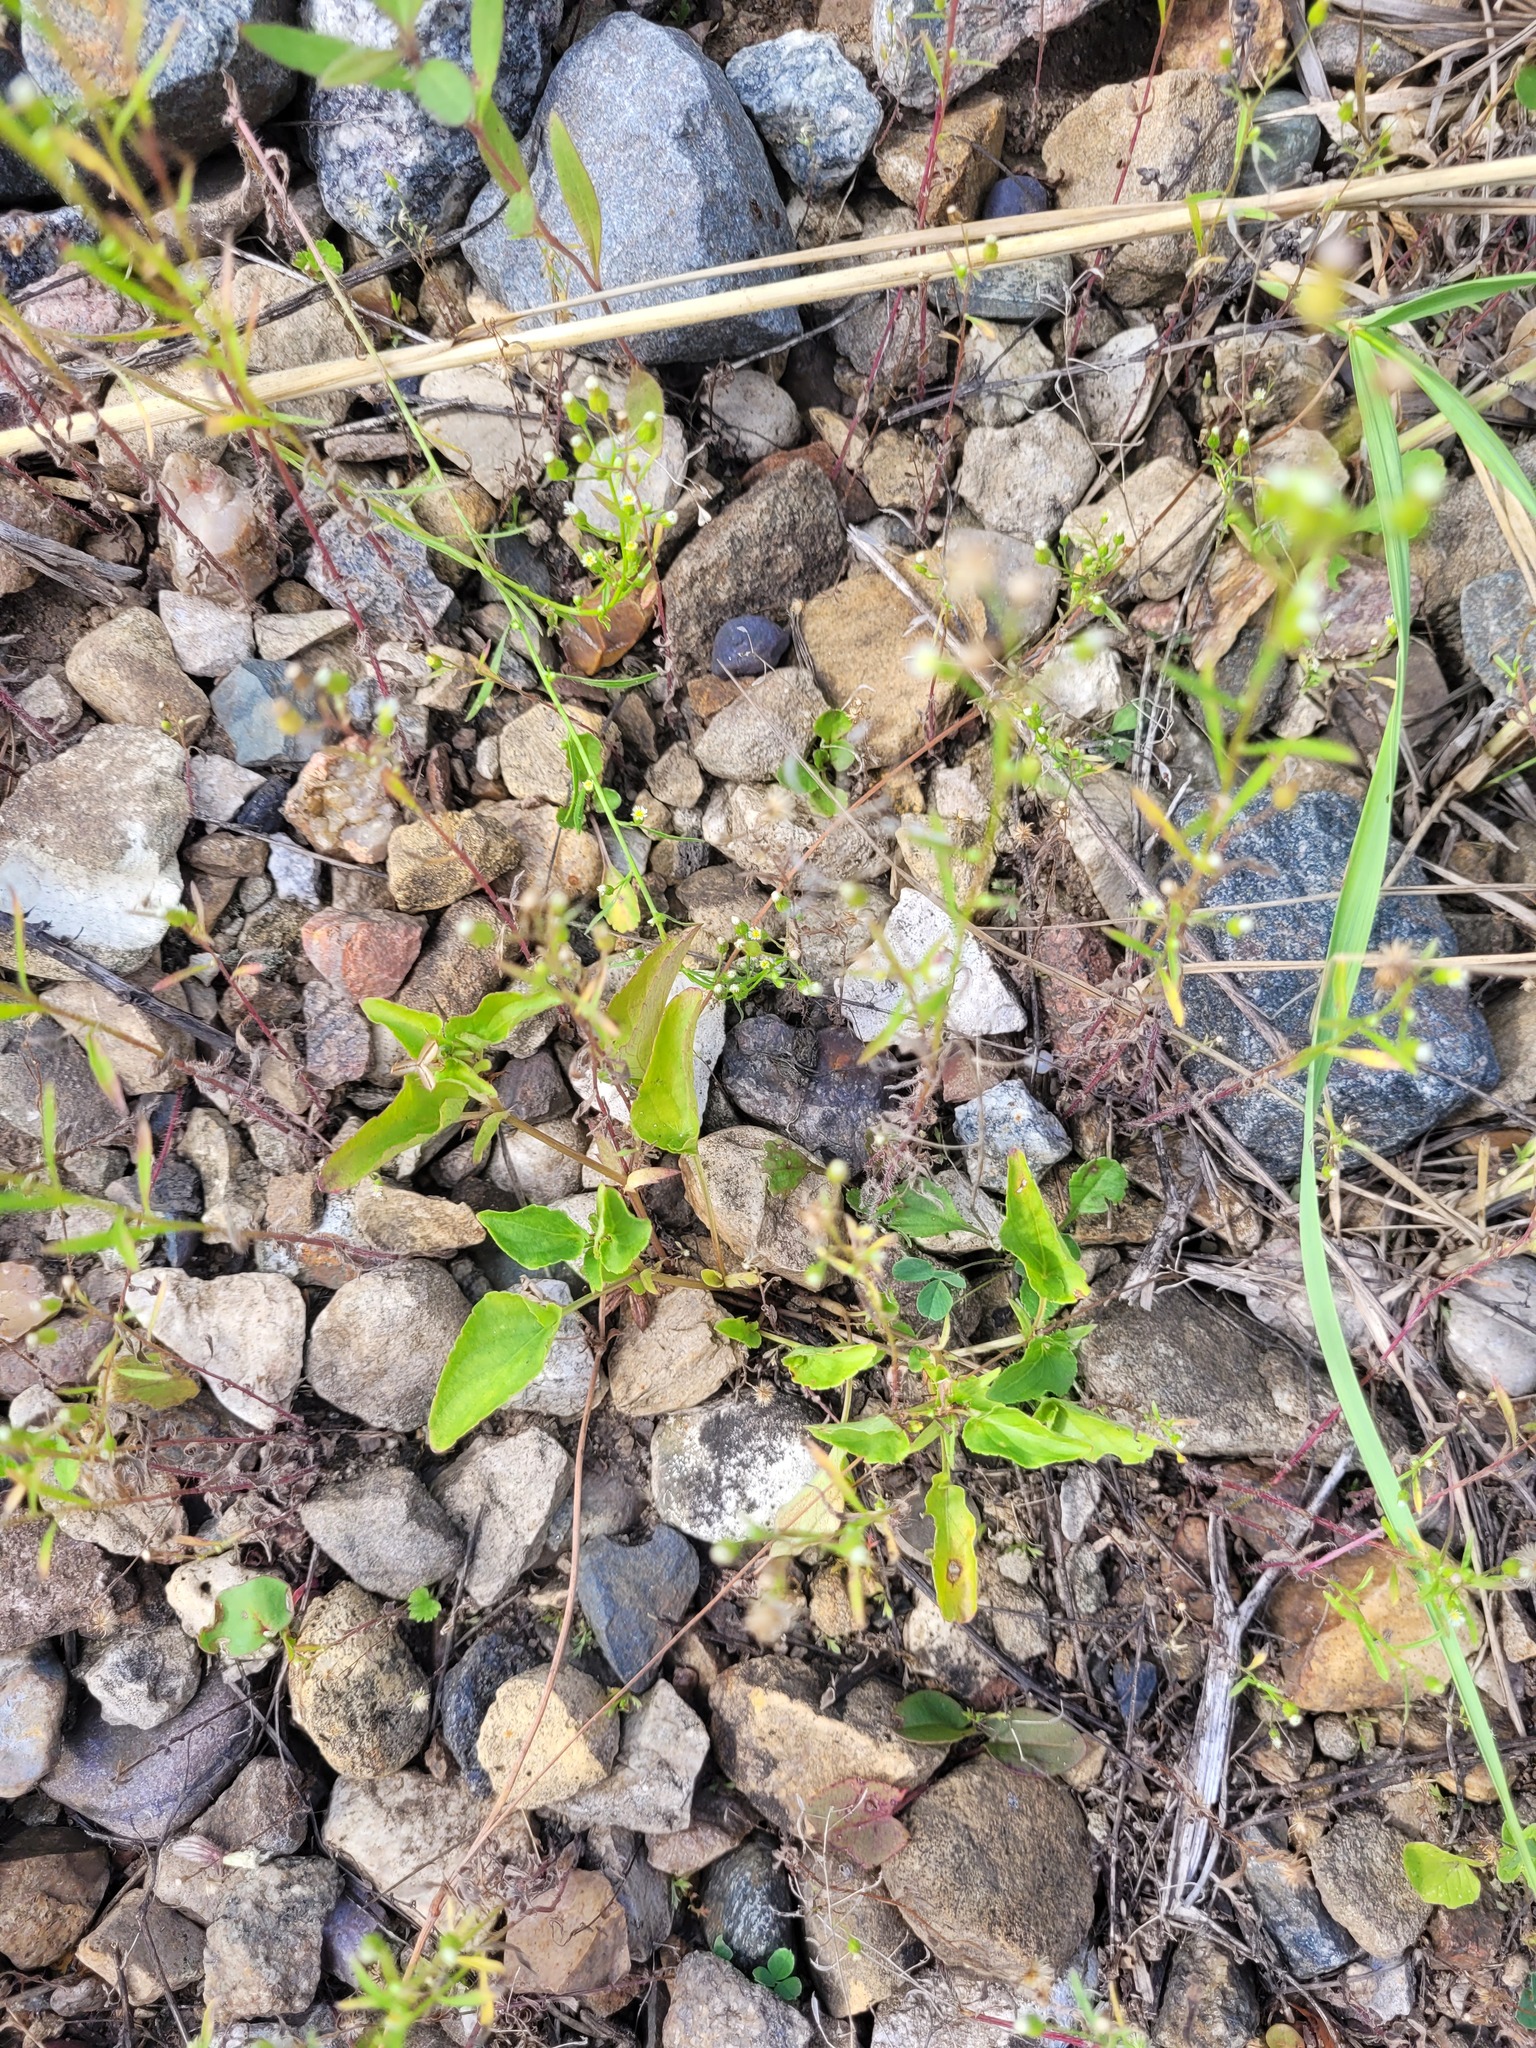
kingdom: Plantae
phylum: Tracheophyta
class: Magnoliopsida
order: Malpighiales
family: Violaceae
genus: Viola
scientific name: Viola
